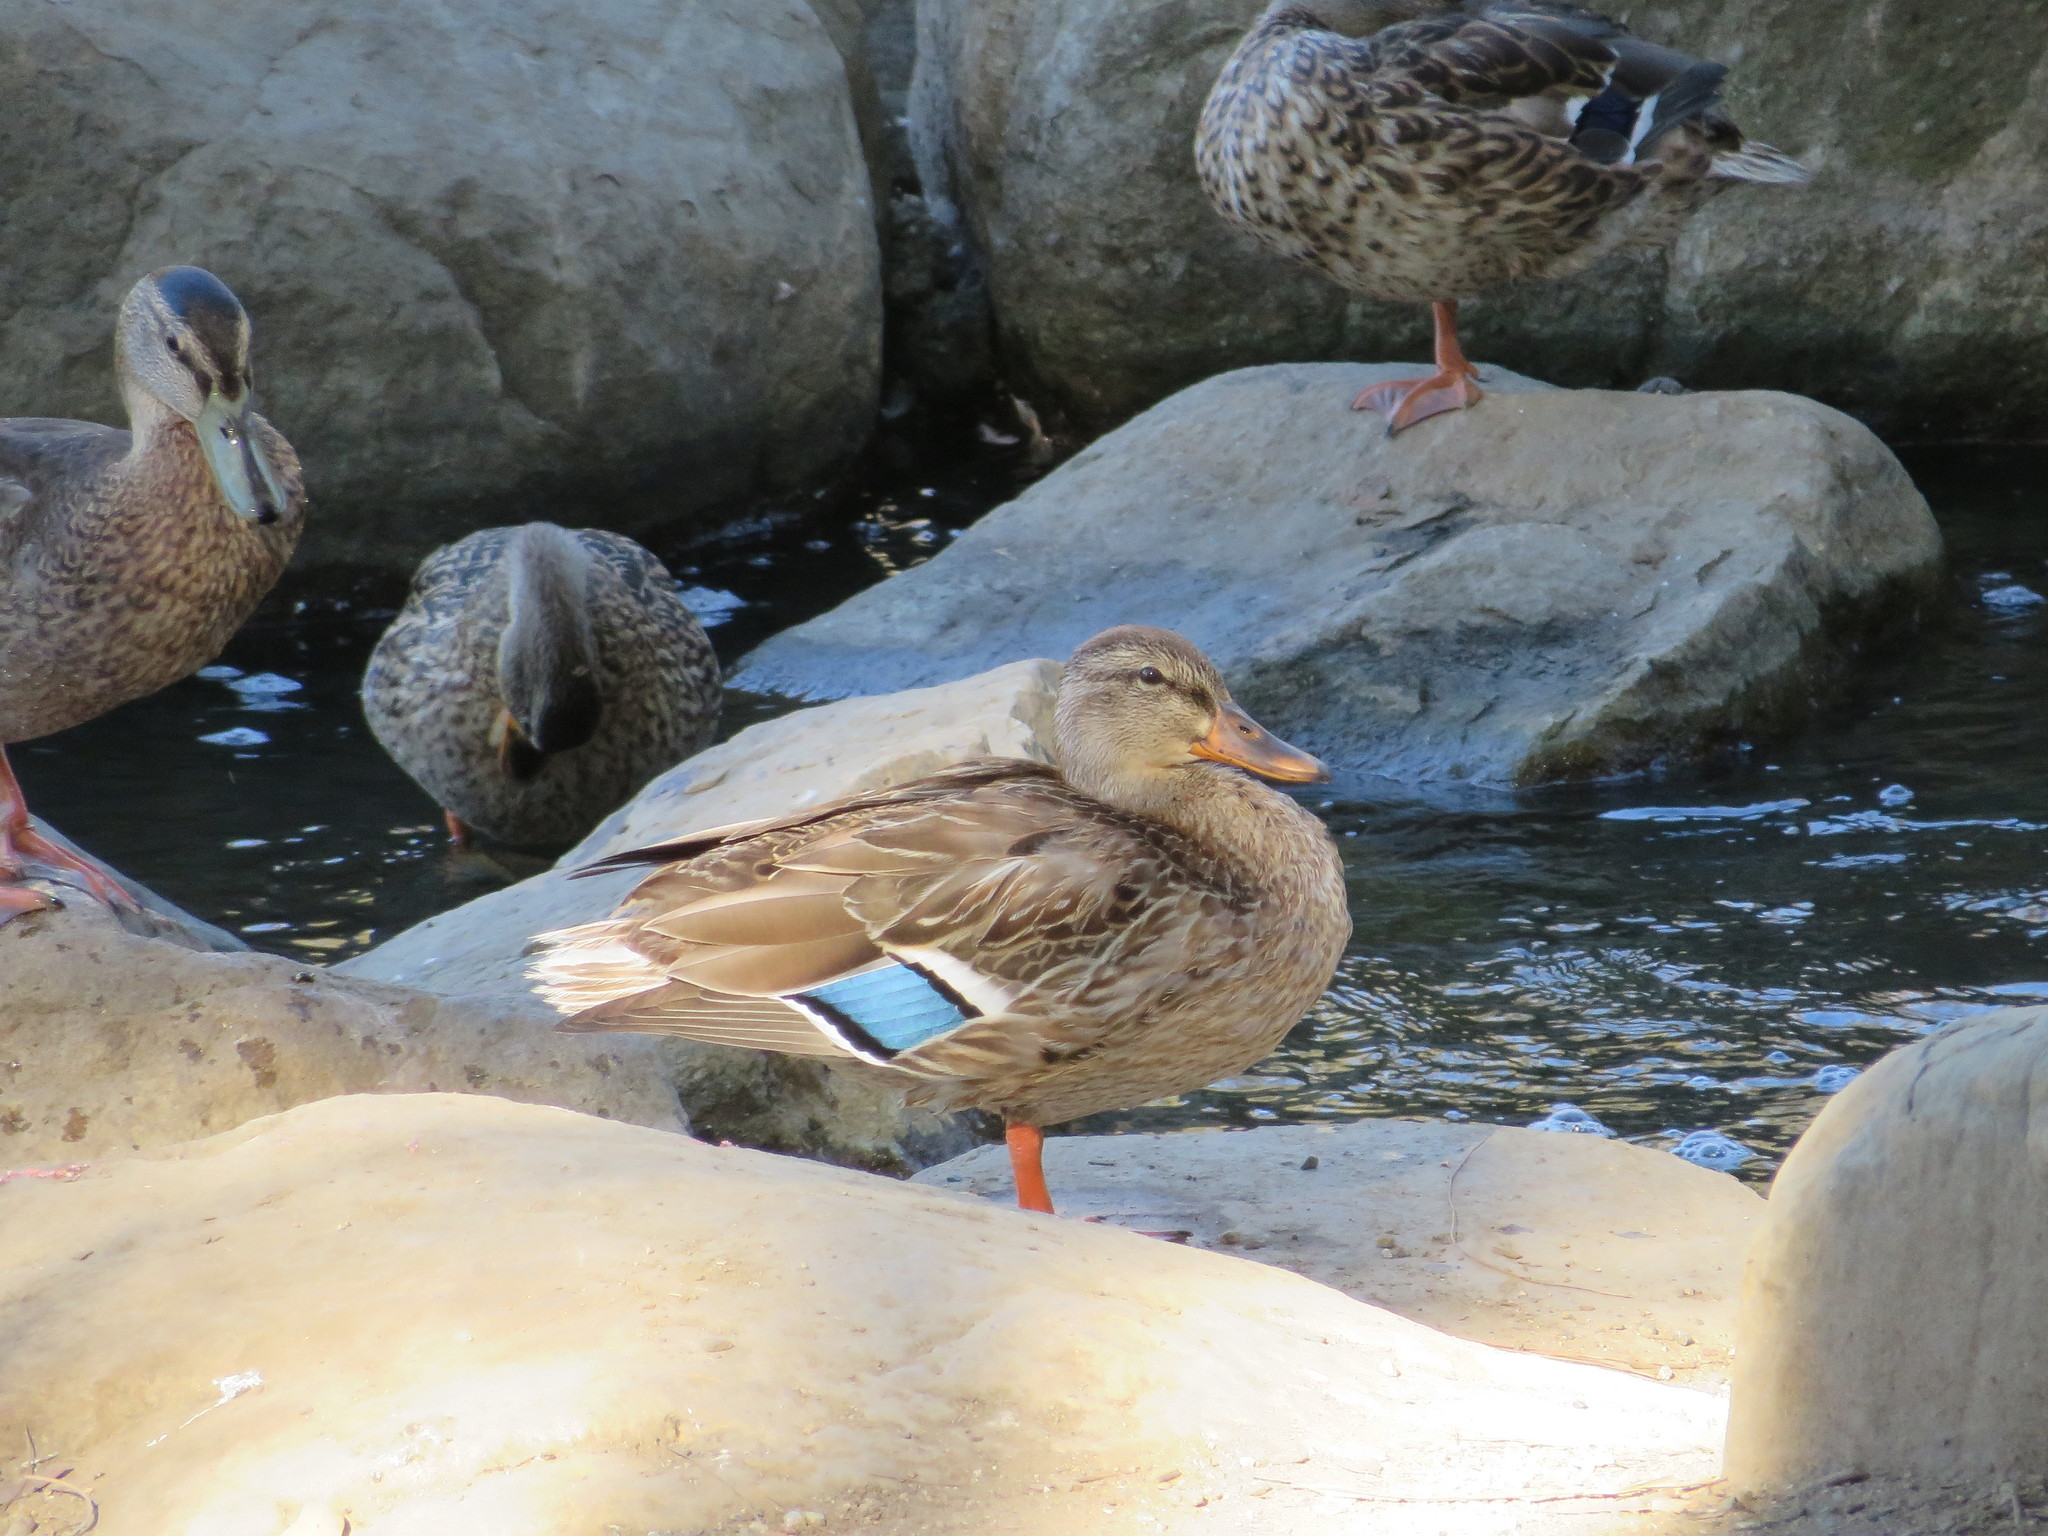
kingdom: Animalia
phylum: Chordata
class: Aves
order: Anseriformes
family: Anatidae
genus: Anas
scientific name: Anas platyrhynchos
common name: Mallard
